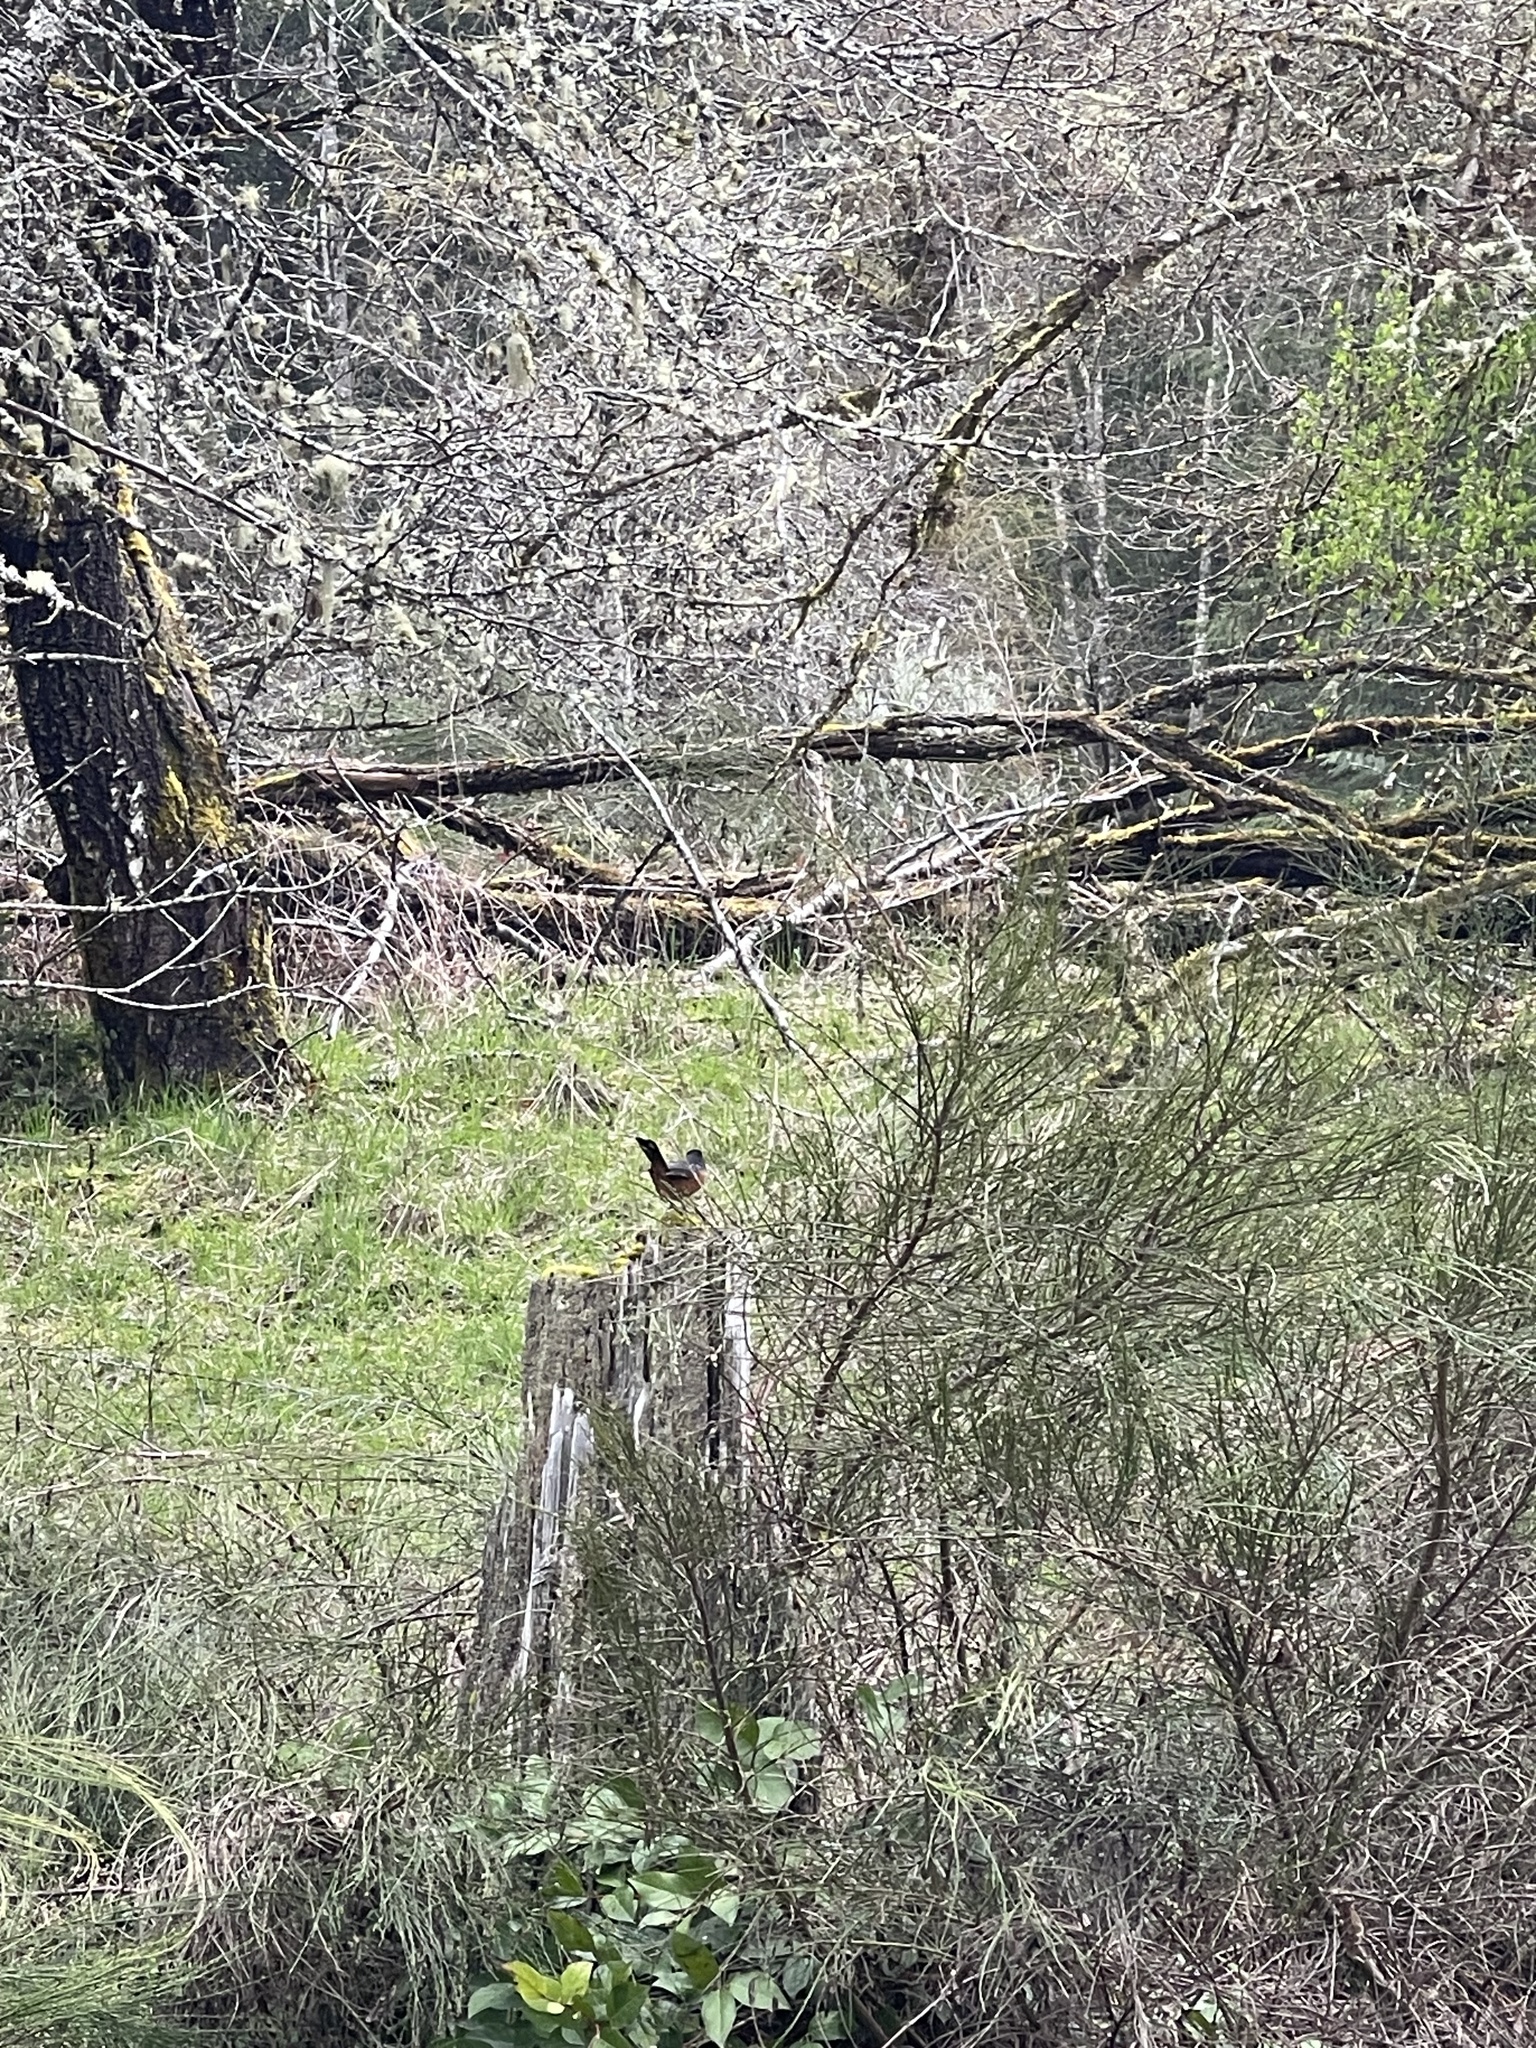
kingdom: Animalia
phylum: Chordata
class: Aves
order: Passeriformes
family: Passerellidae
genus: Pipilo
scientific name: Pipilo maculatus
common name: Spotted towhee
